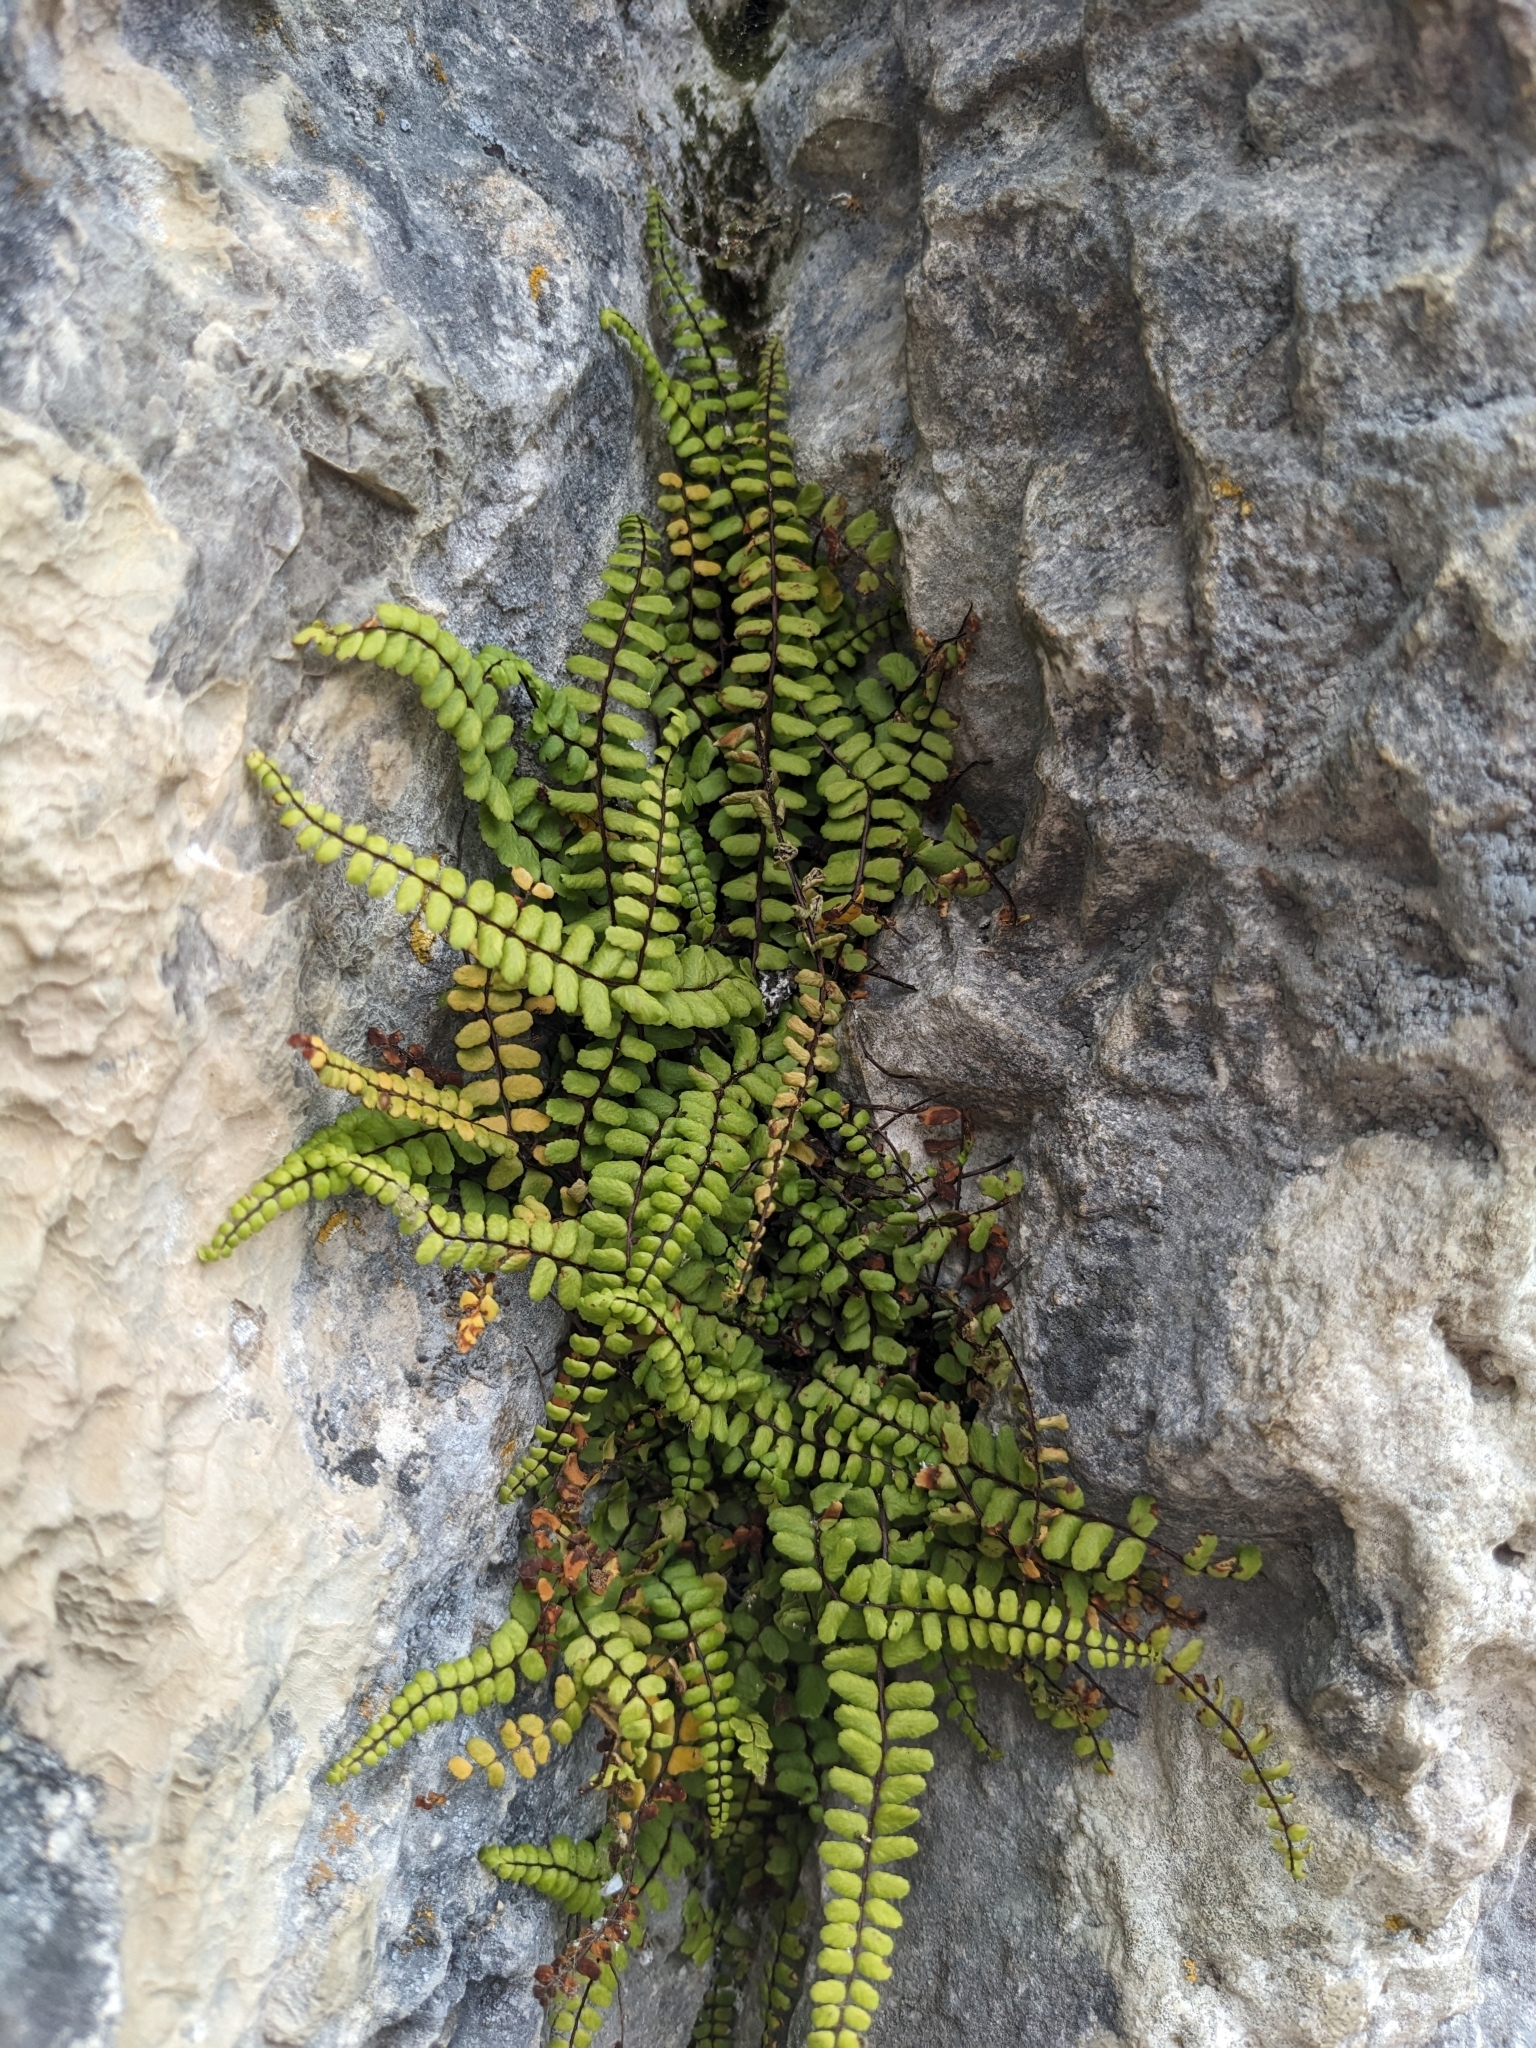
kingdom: Plantae
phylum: Tracheophyta
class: Polypodiopsida
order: Polypodiales
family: Aspleniaceae
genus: Asplenium
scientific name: Asplenium trichomanes
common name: Maidenhair spleenwort
